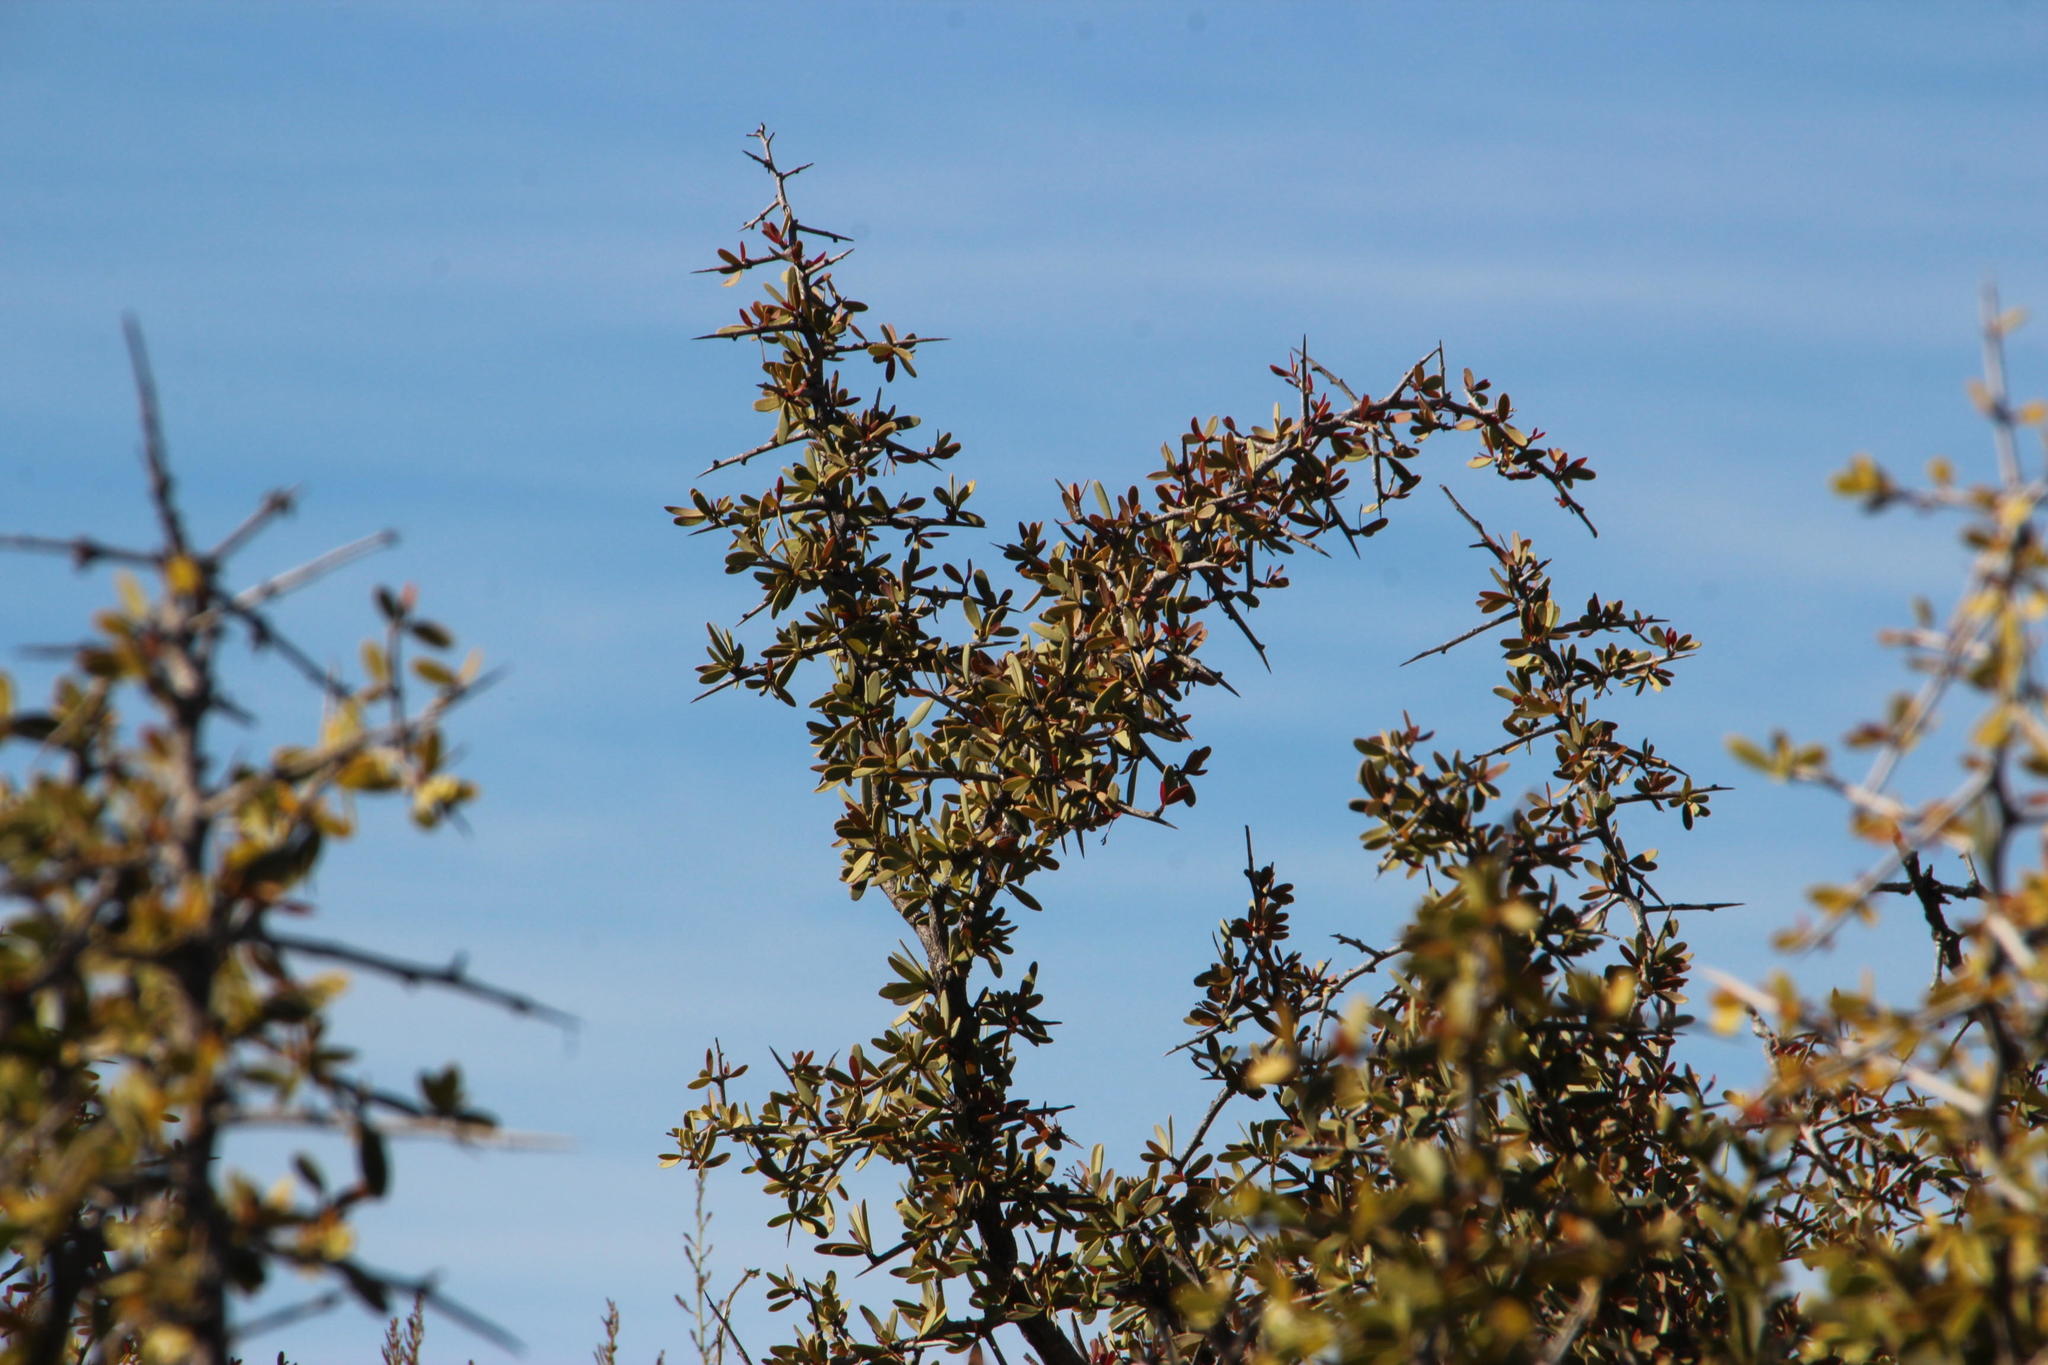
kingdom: Plantae
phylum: Tracheophyta
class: Magnoliopsida
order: Celastrales
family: Celastraceae
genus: Gloveria
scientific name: Gloveria integrifolia
